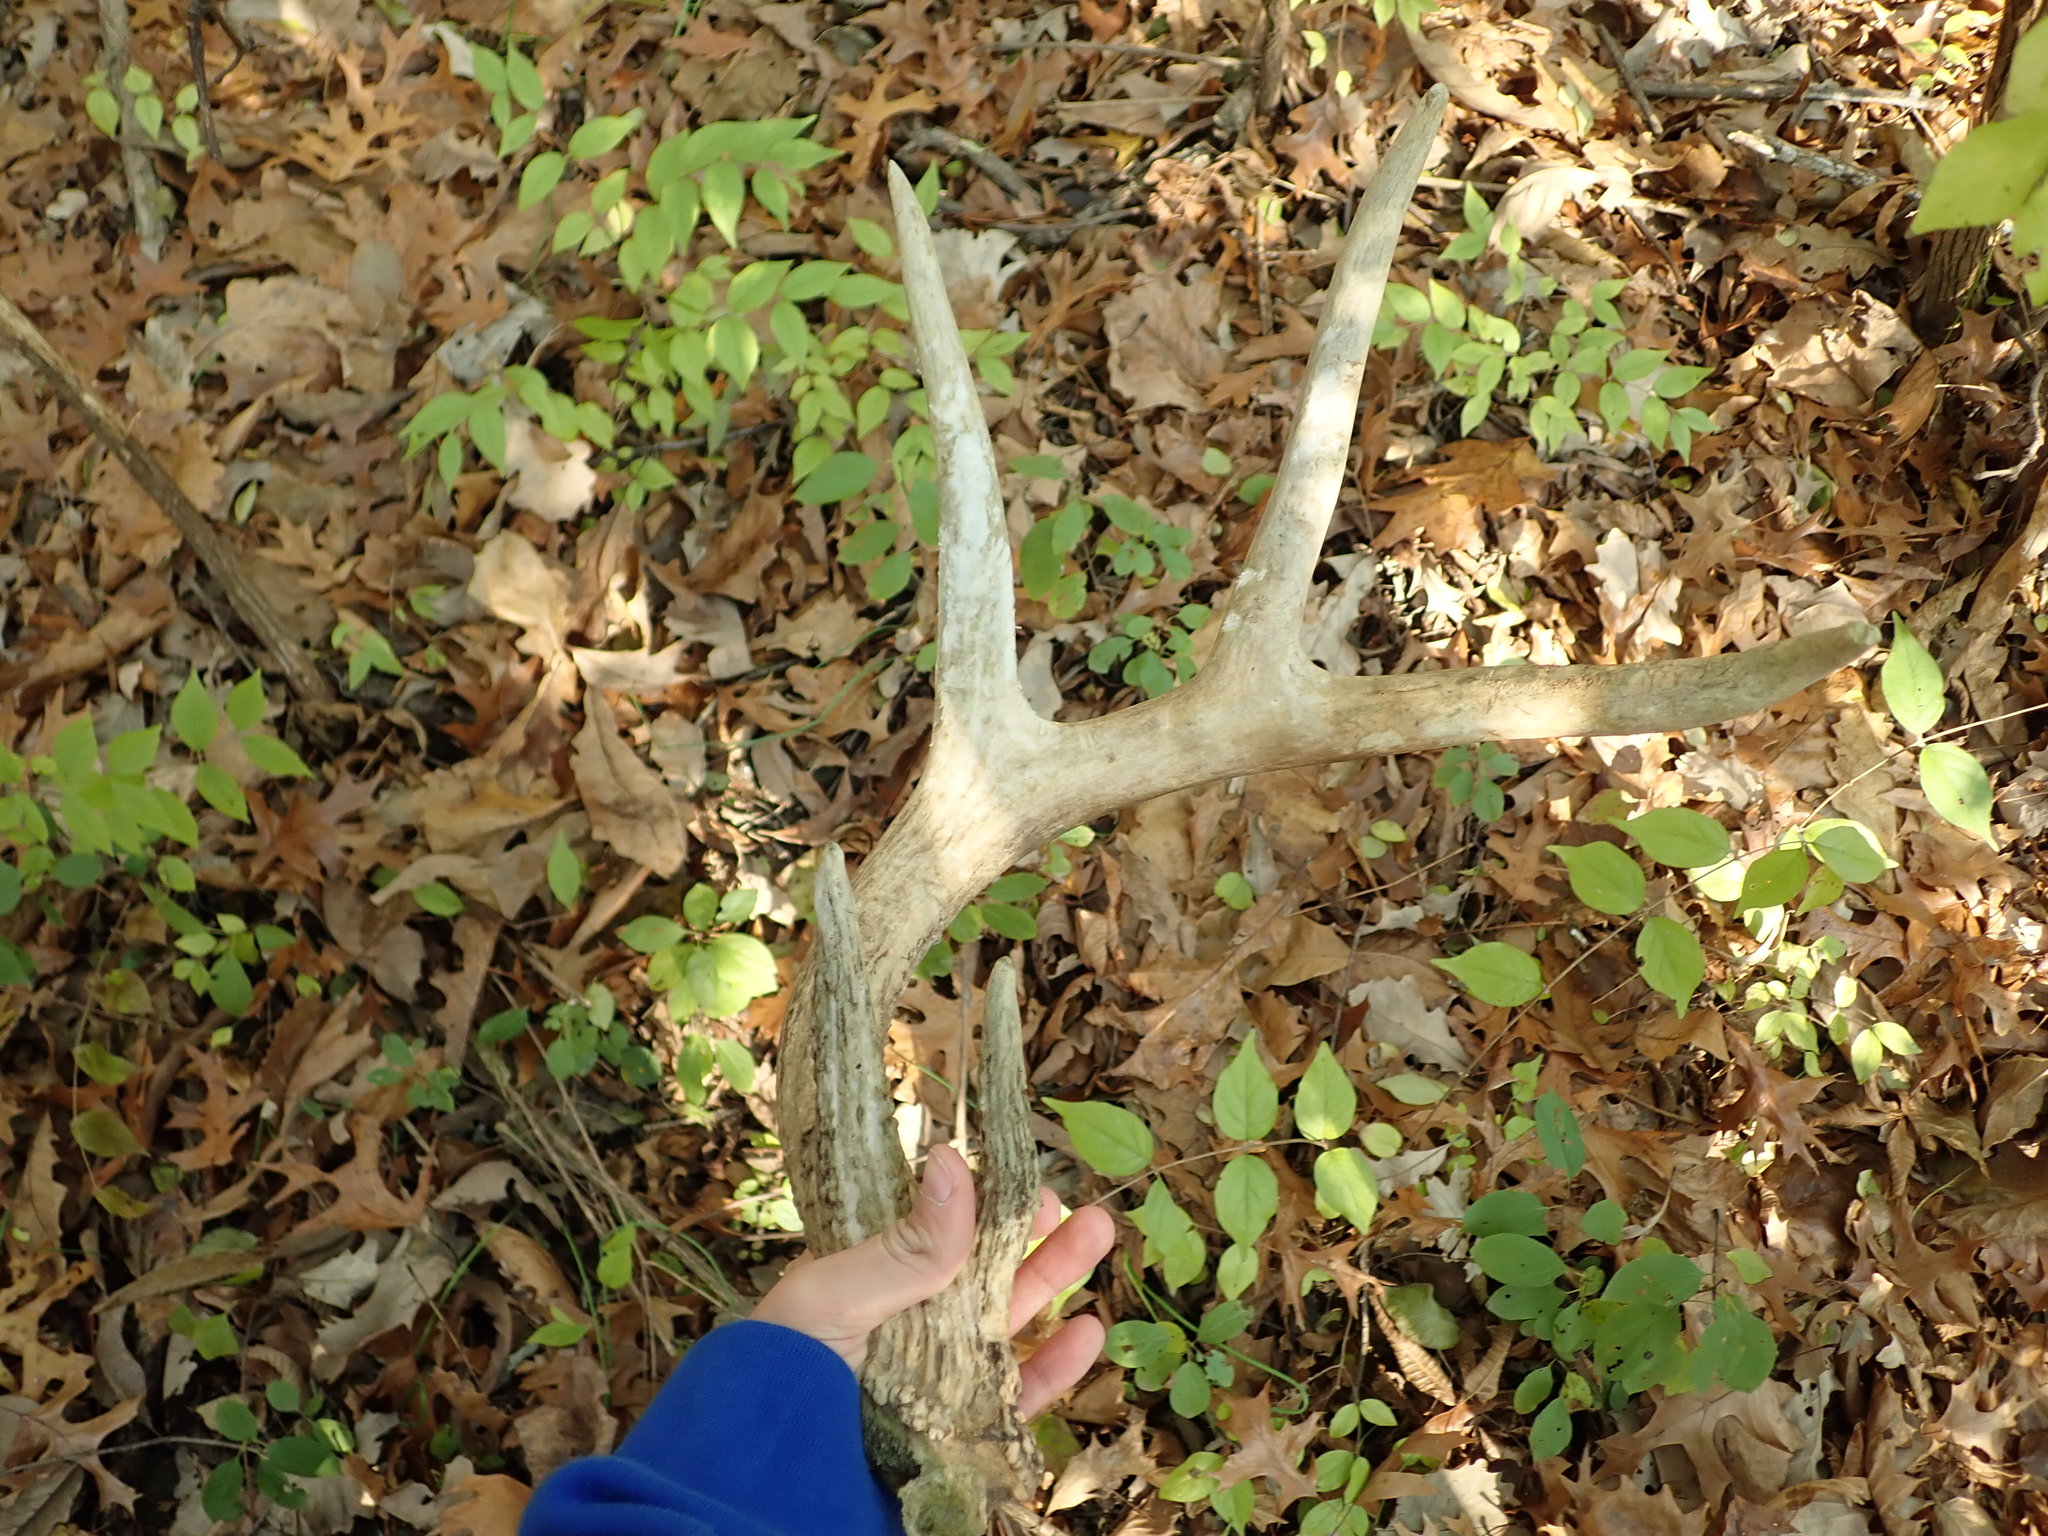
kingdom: Animalia
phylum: Chordata
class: Mammalia
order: Artiodactyla
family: Cervidae
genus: Odocoileus
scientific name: Odocoileus virginianus
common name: White-tailed deer
